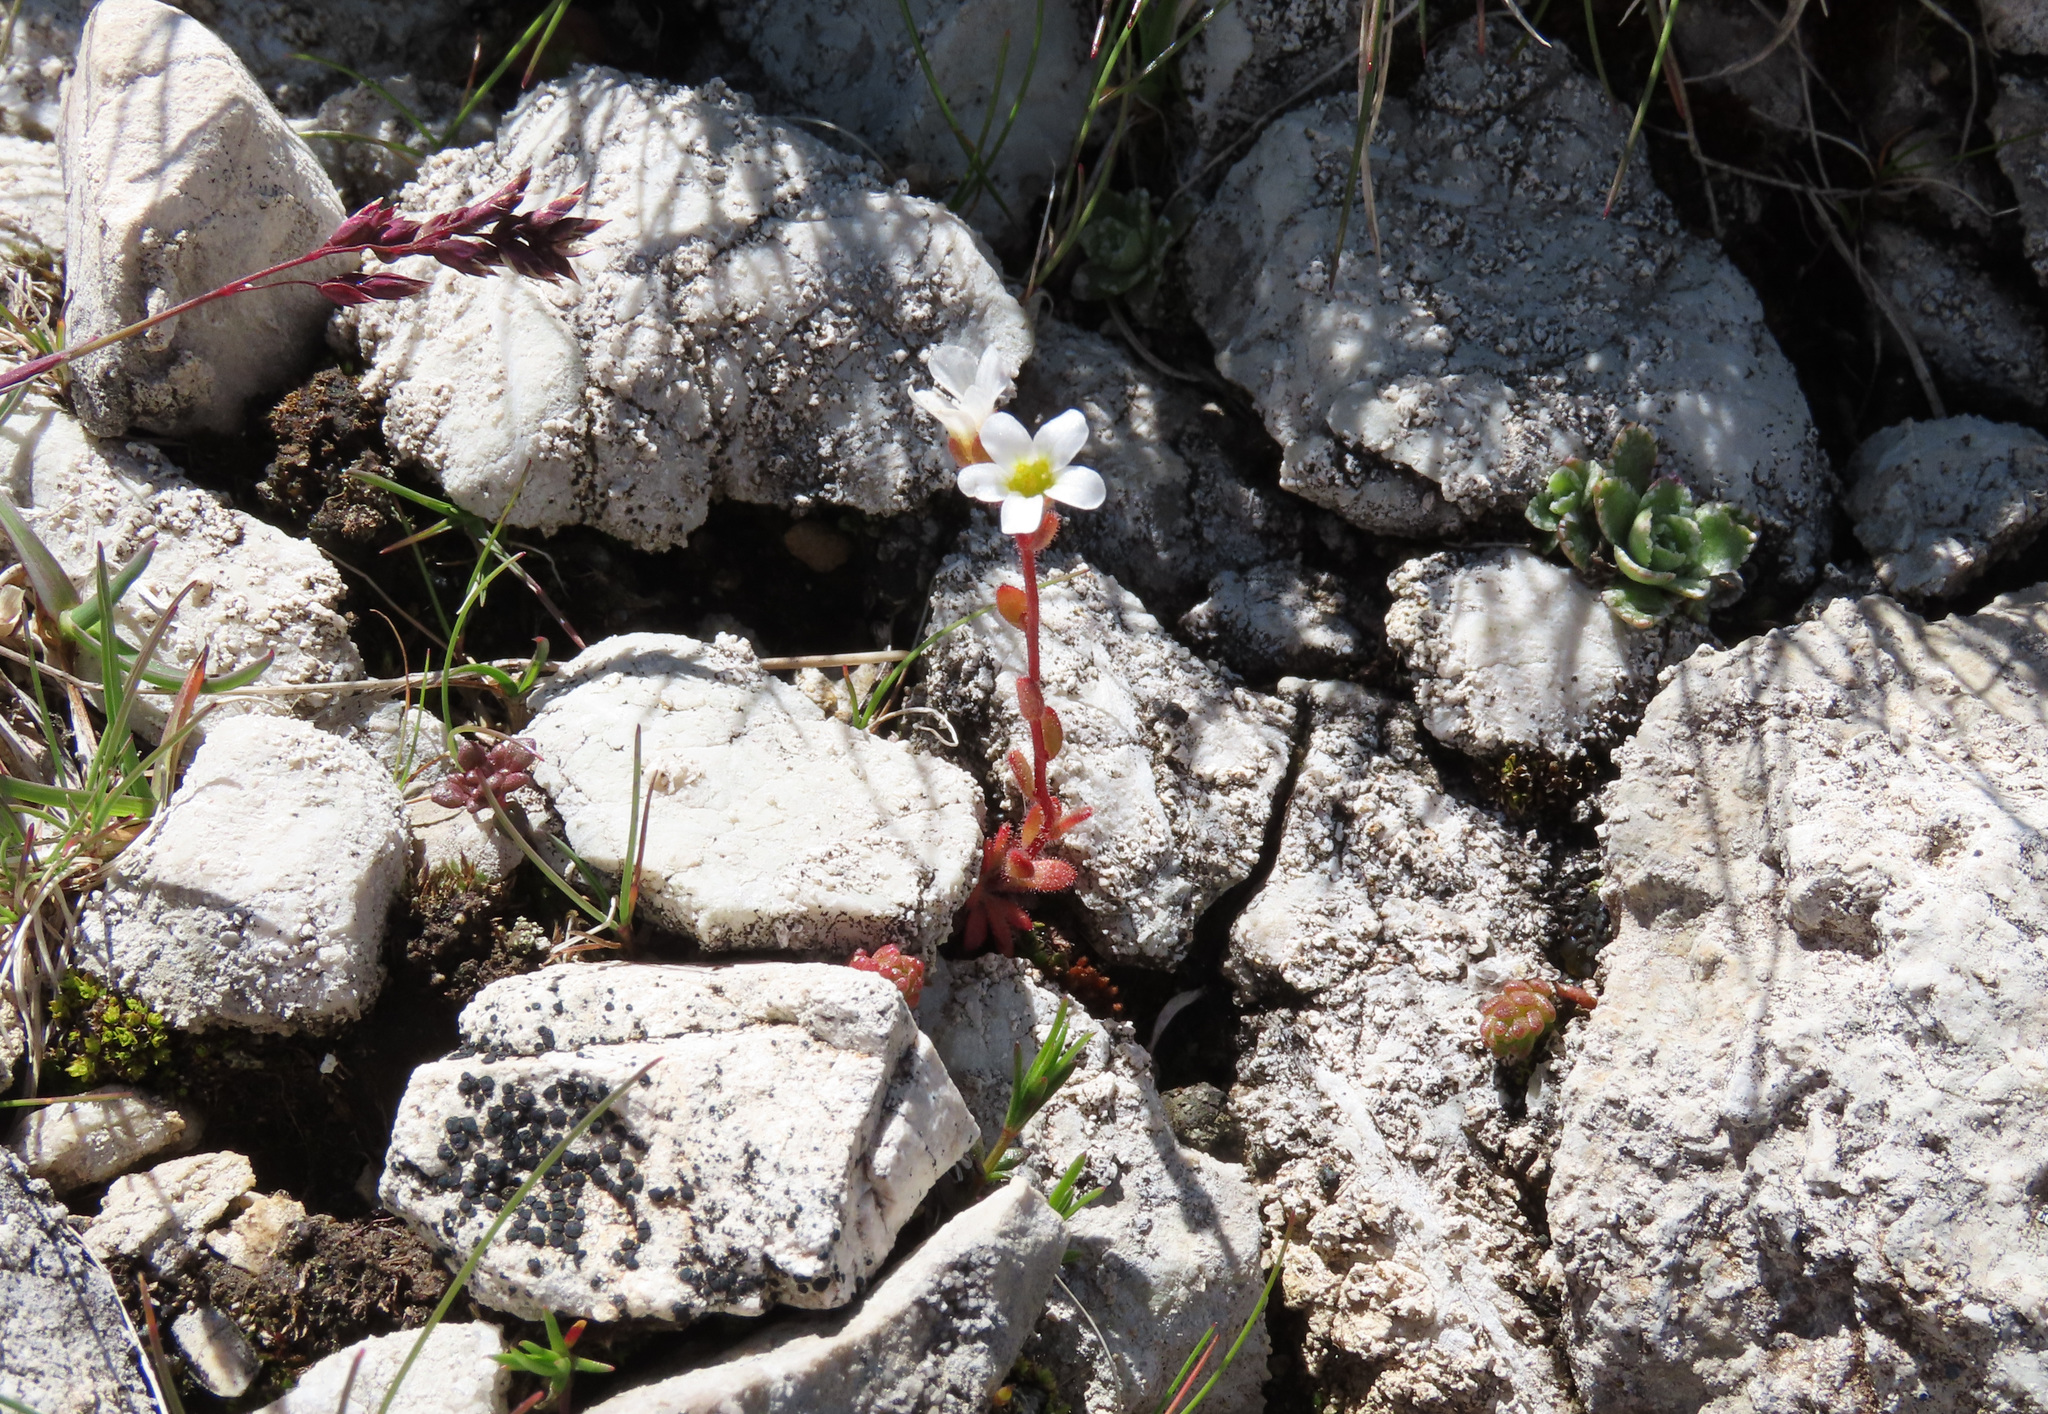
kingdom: Plantae
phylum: Tracheophyta
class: Magnoliopsida
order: Saxifragales
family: Saxifragaceae
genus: Saxifraga
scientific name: Saxifraga adscendens
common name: Ascending saxifrage
